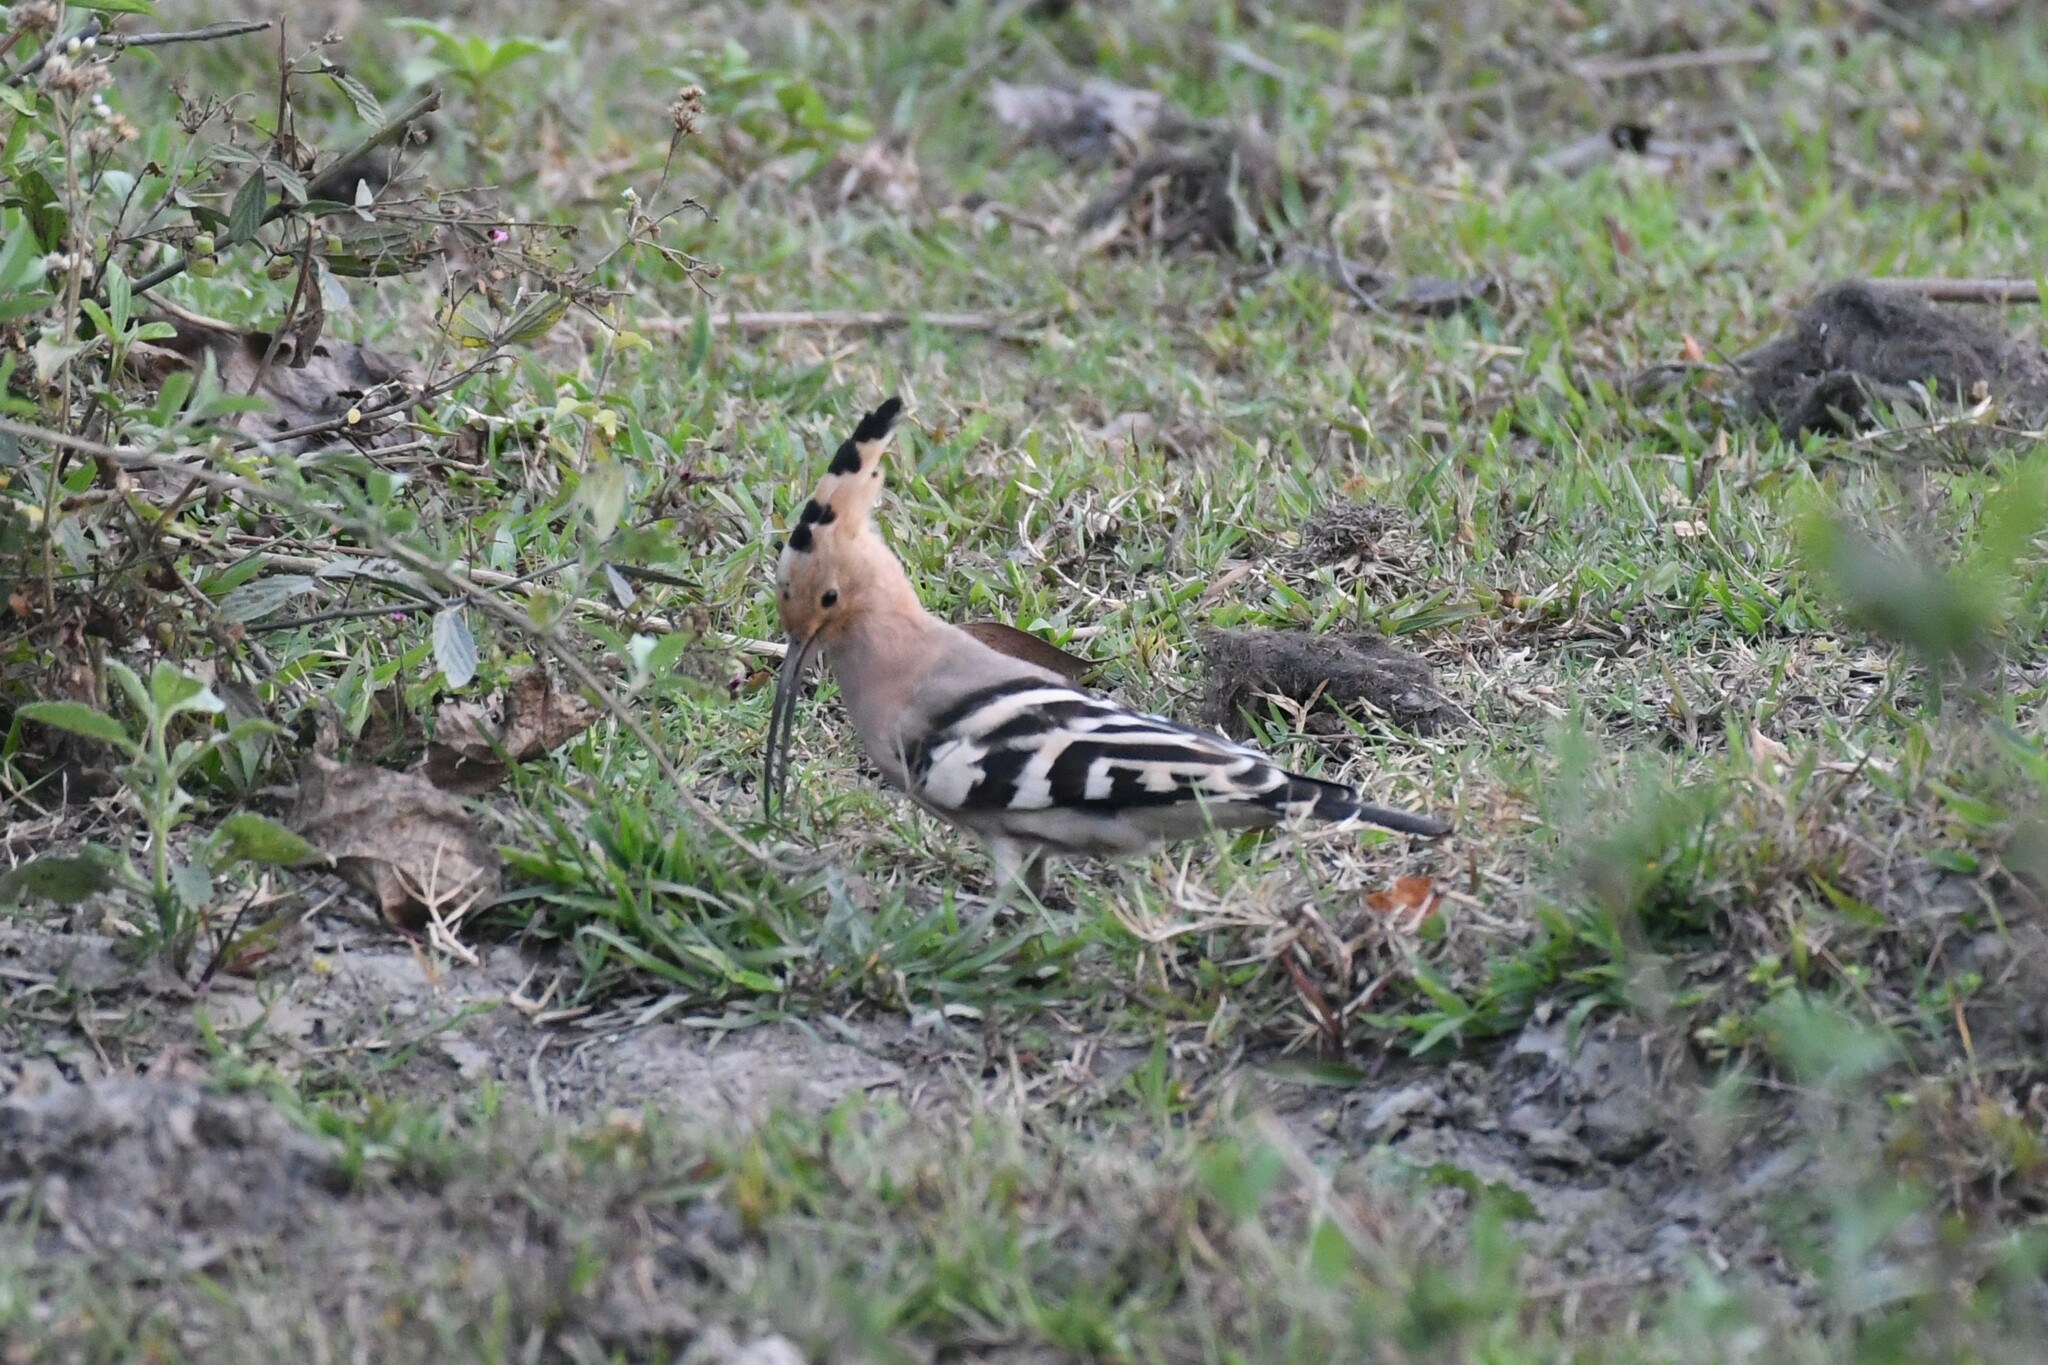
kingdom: Animalia
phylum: Chordata
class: Aves
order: Bucerotiformes
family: Upupidae
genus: Upupa
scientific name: Upupa epops
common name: Eurasian hoopoe
